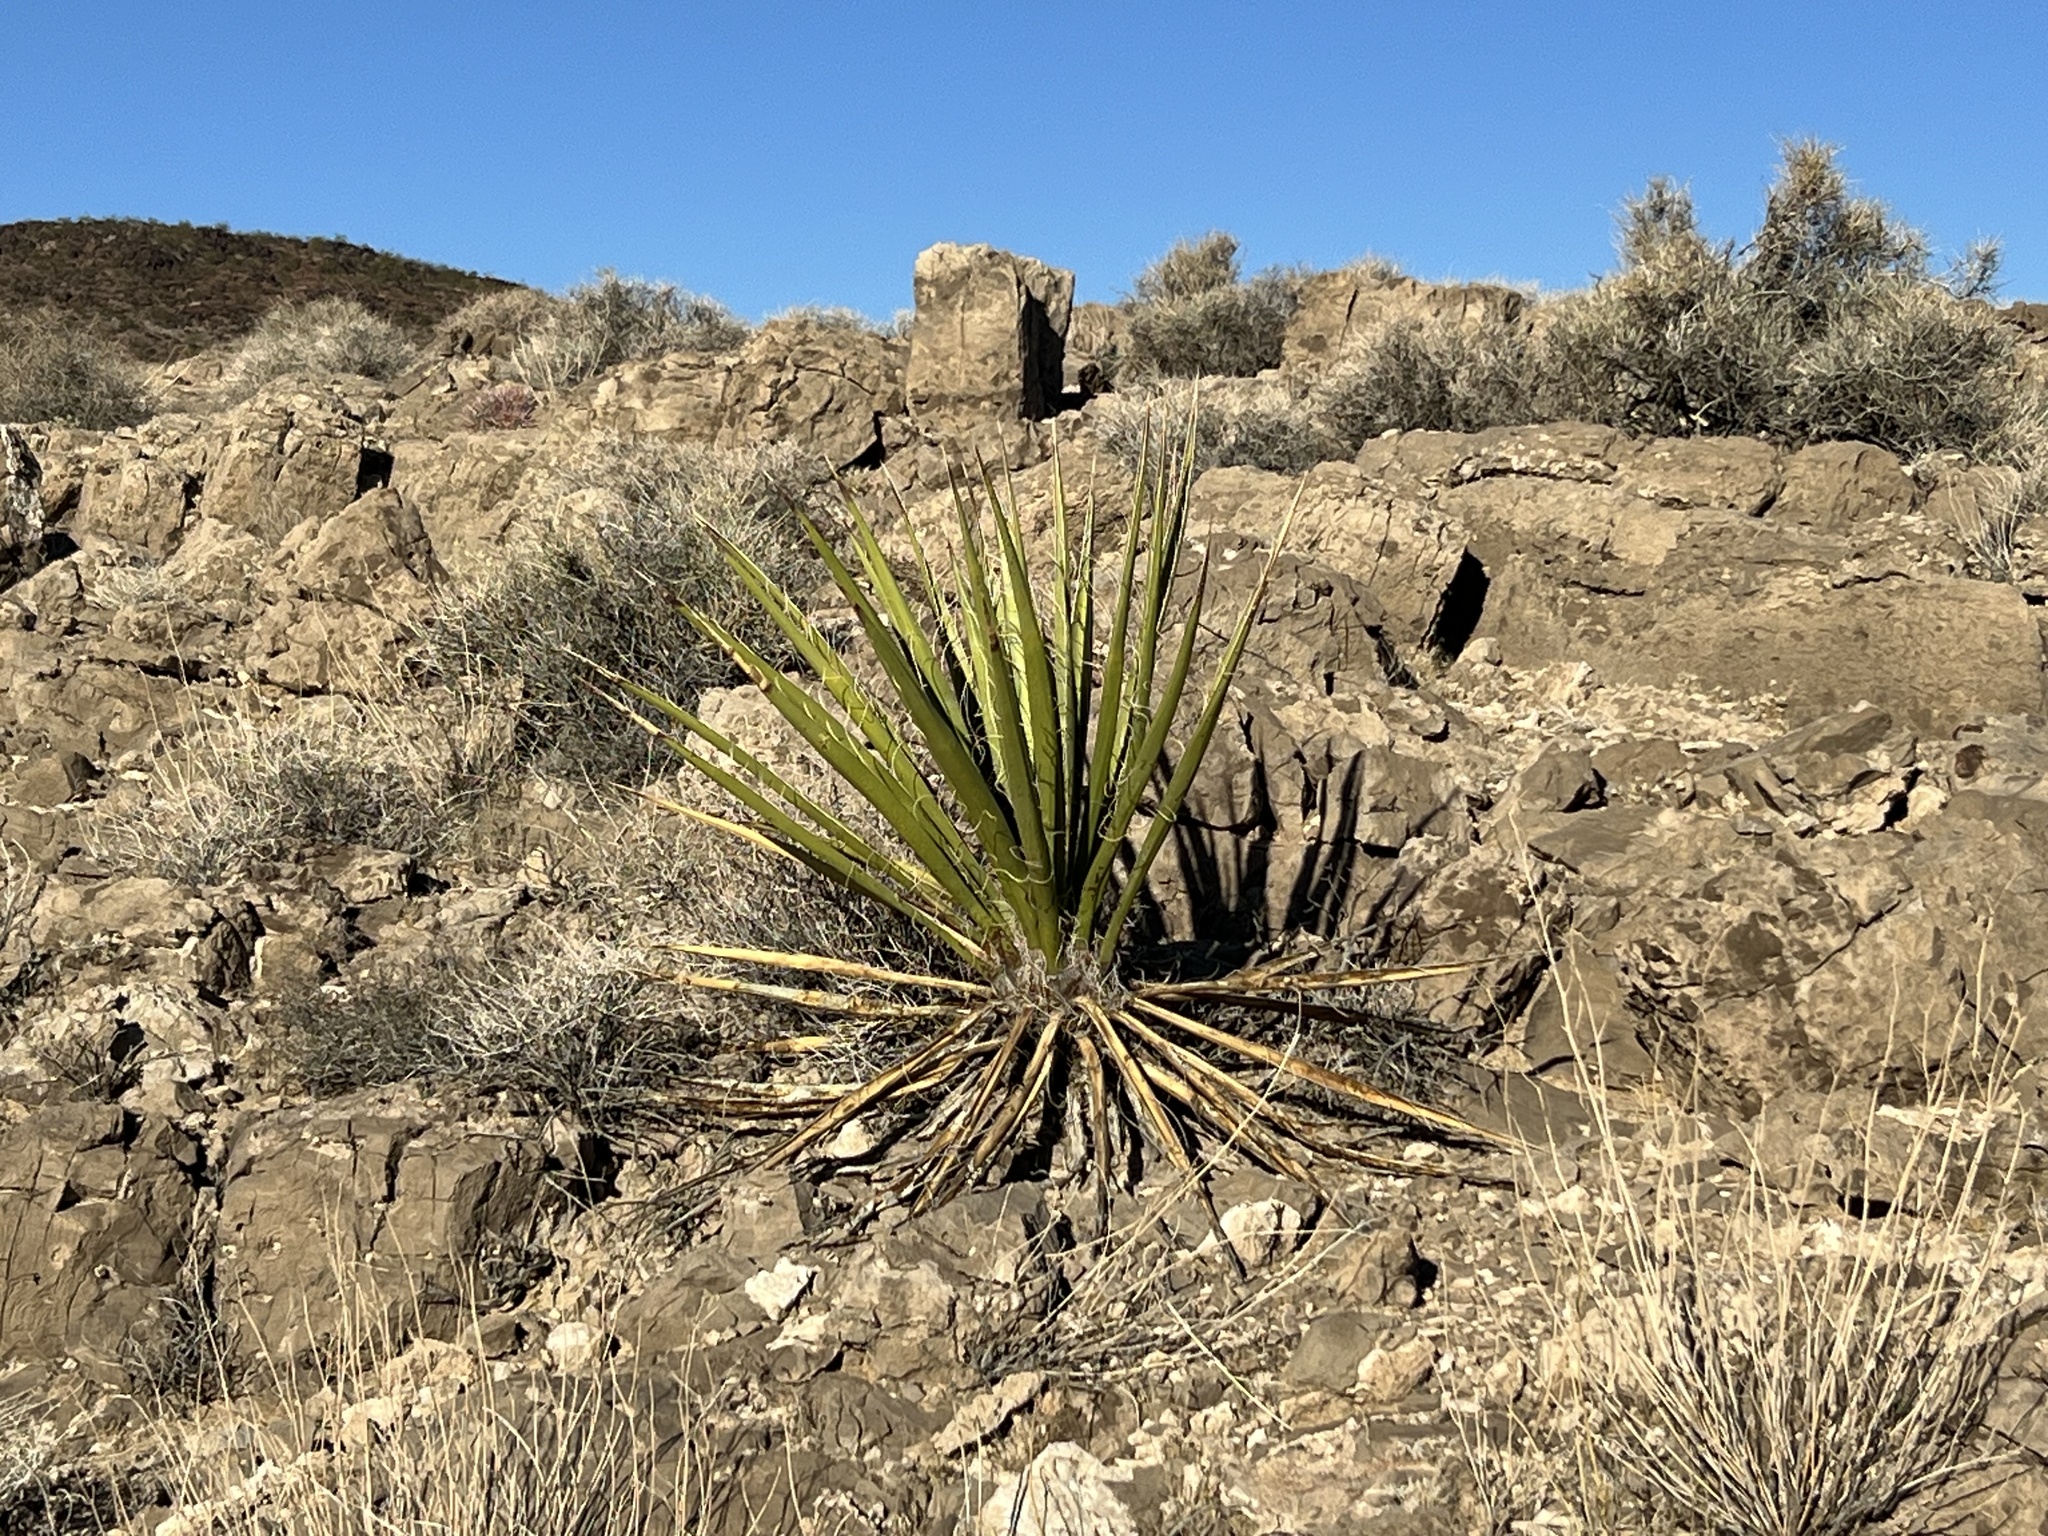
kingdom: Plantae
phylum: Tracheophyta
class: Liliopsida
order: Asparagales
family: Asparagaceae
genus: Yucca
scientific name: Yucca schidigera
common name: Mojave yucca
